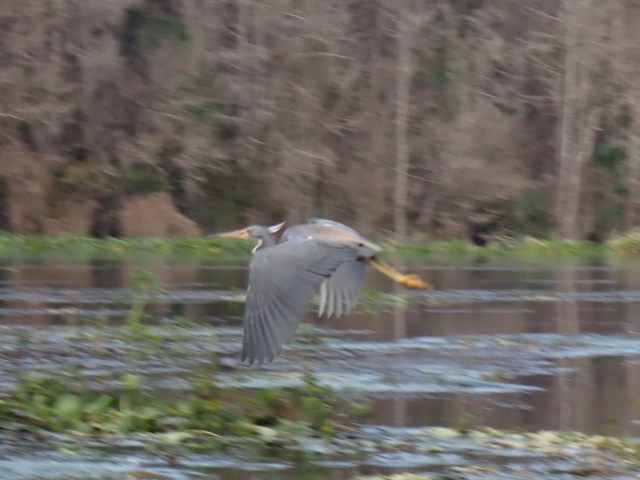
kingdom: Animalia
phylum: Chordata
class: Aves
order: Pelecaniformes
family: Ardeidae
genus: Egretta
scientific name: Egretta tricolor
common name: Tricolored heron
